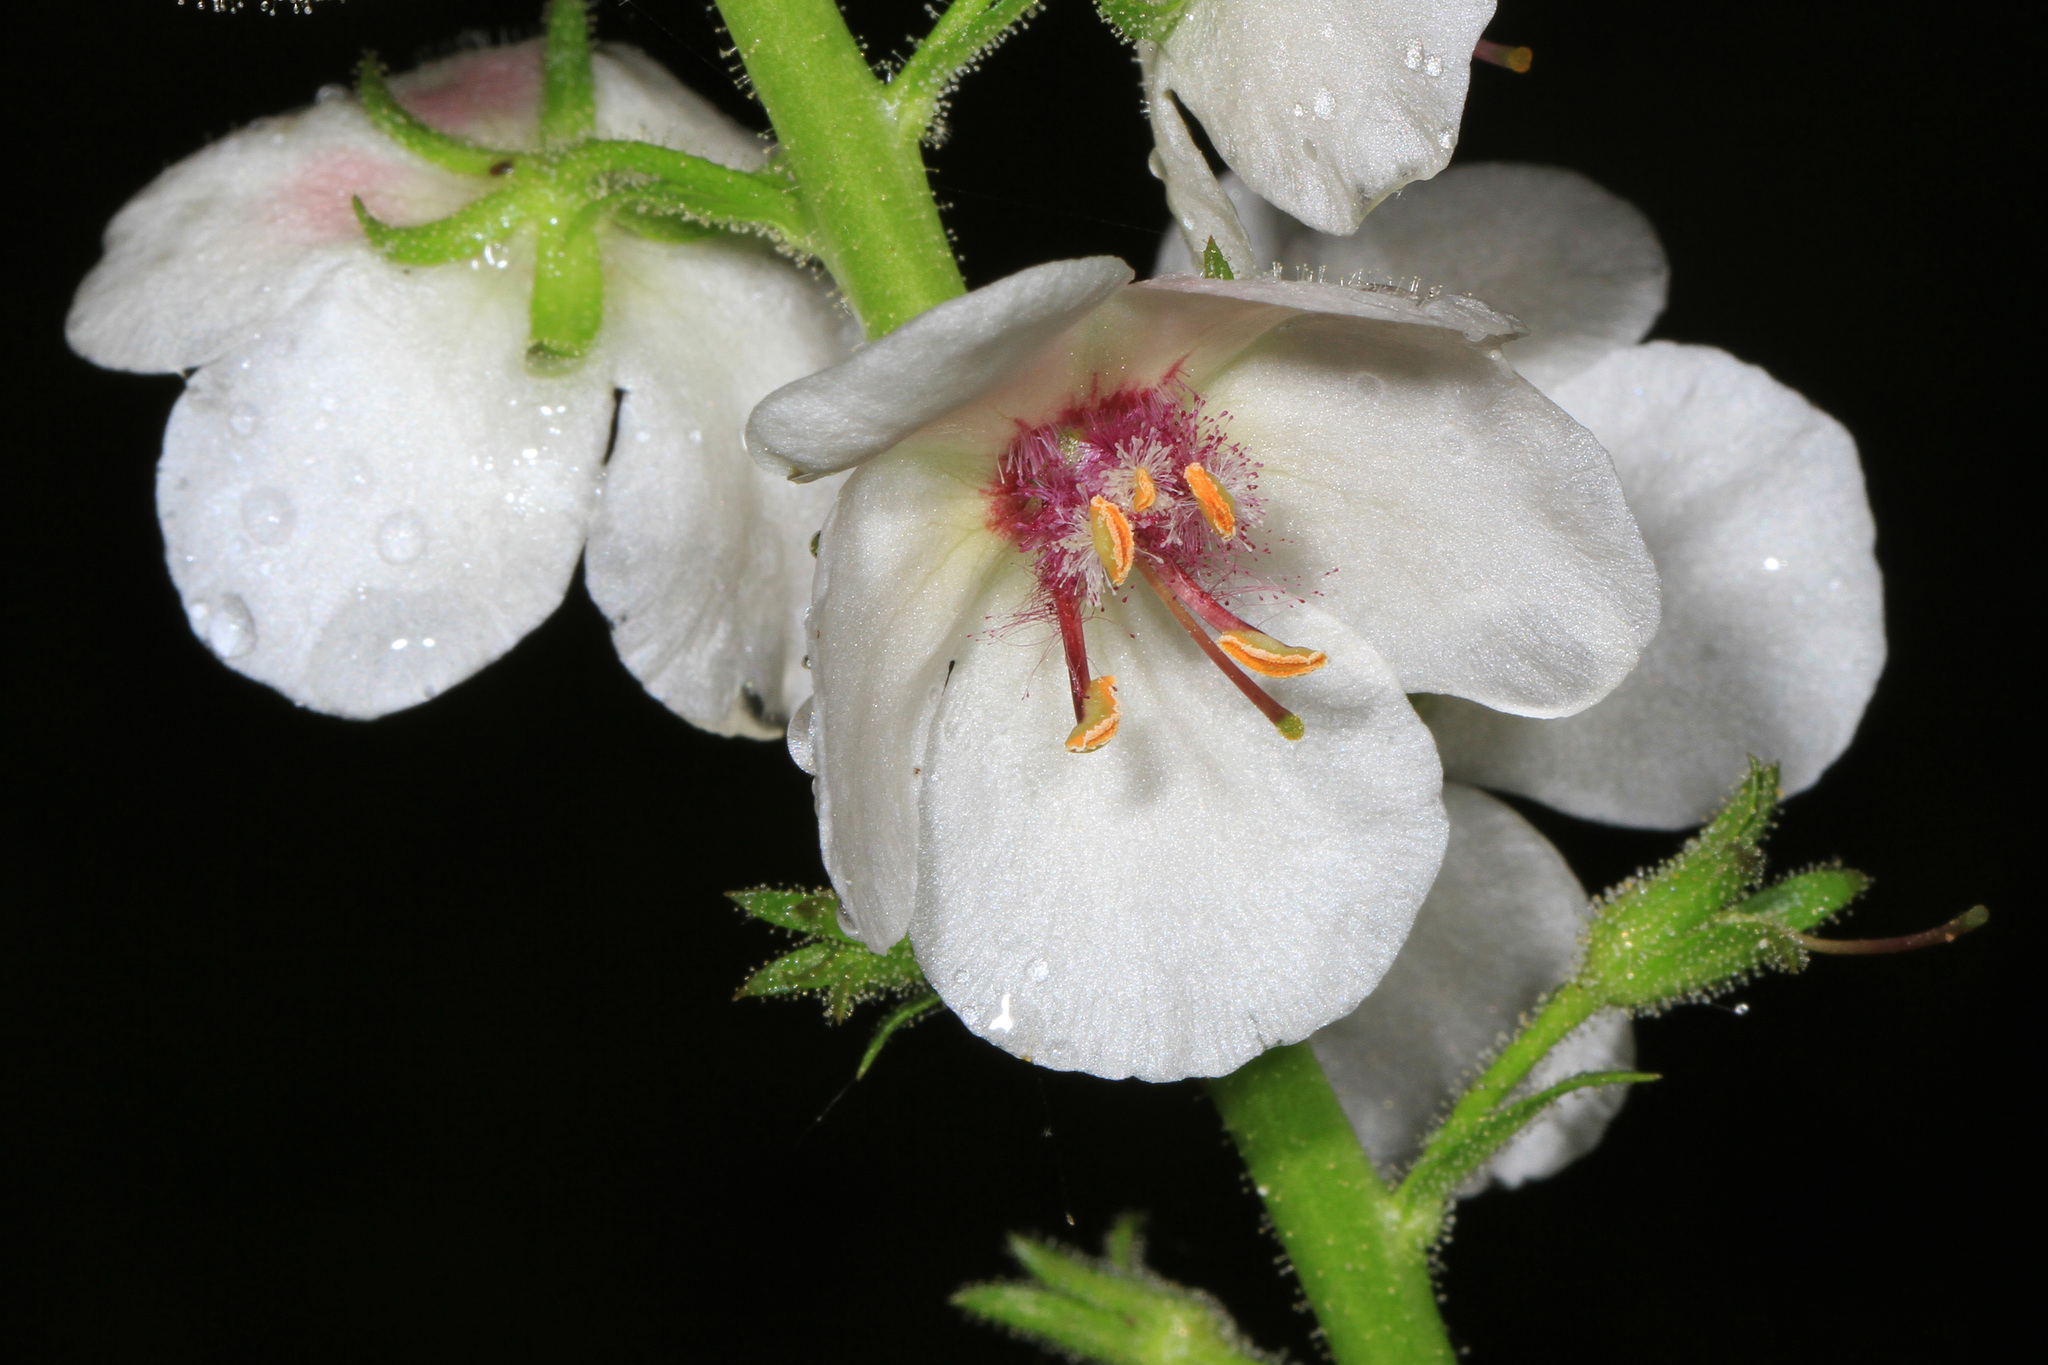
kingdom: Plantae
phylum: Tracheophyta
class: Magnoliopsida
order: Lamiales
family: Scrophulariaceae
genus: Verbascum
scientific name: Verbascum blattaria
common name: Moth mullein
